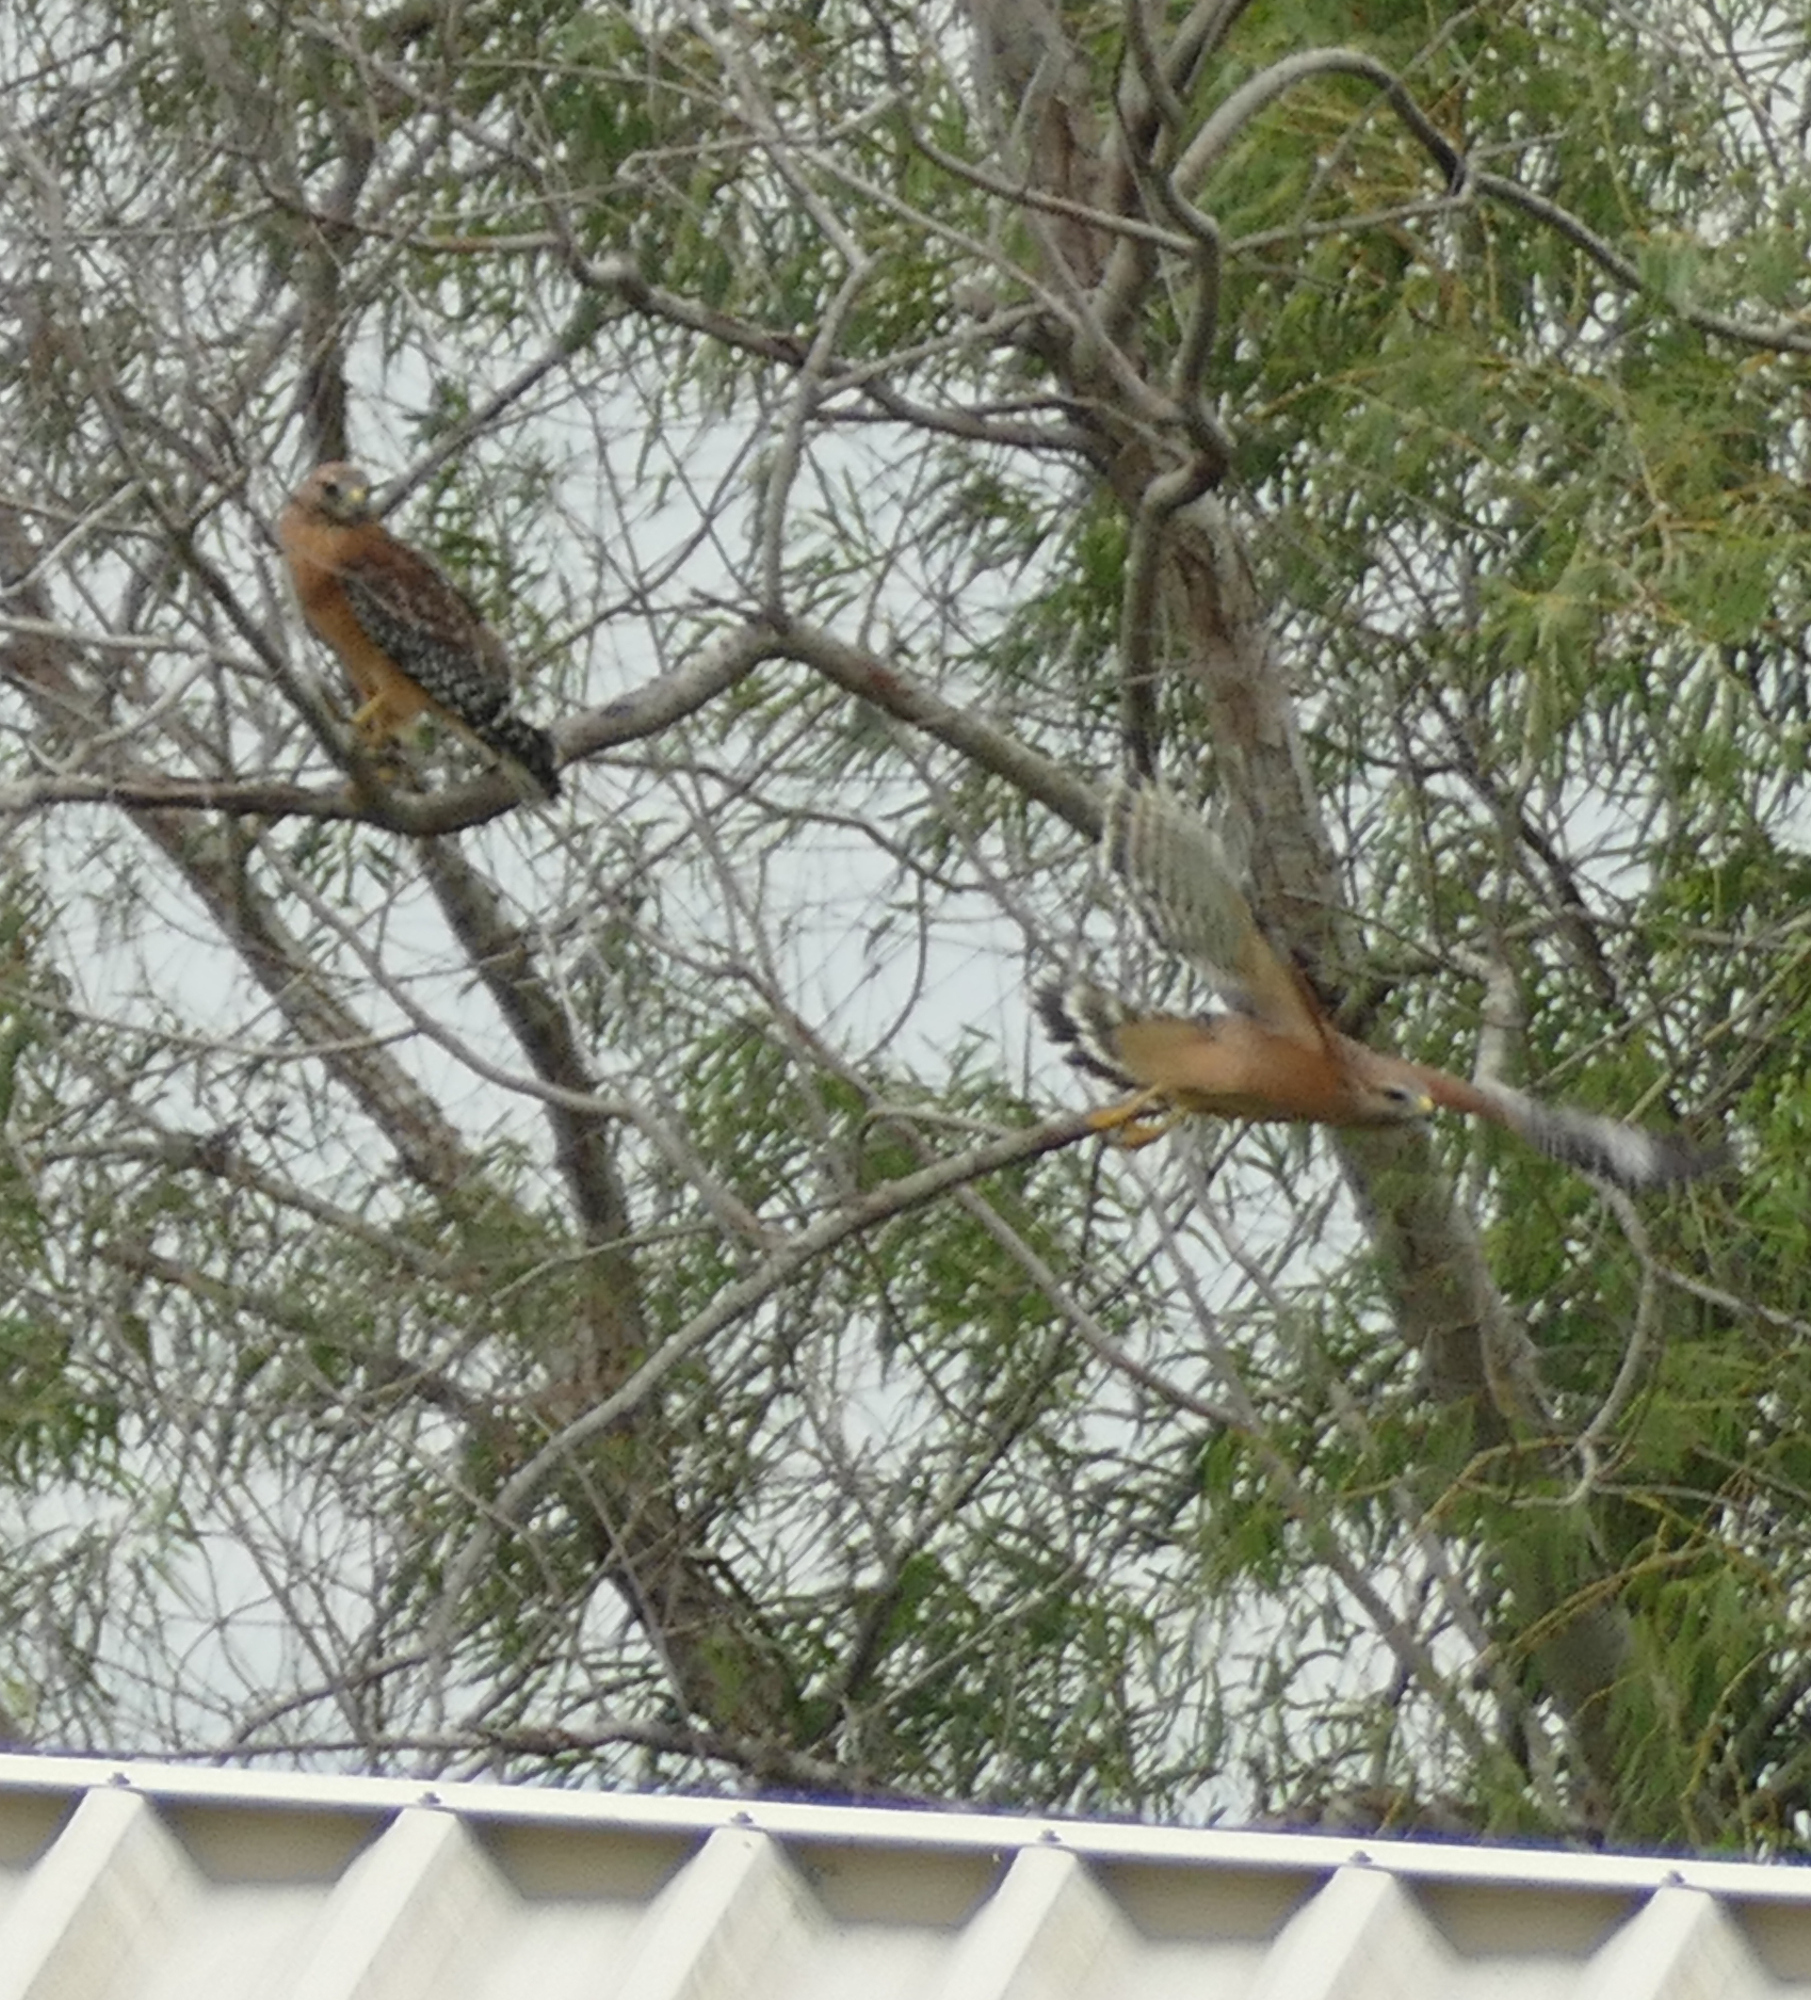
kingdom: Animalia
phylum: Chordata
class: Aves
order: Accipitriformes
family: Accipitridae
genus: Buteo
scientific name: Buteo lineatus
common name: Red-shouldered hawk
